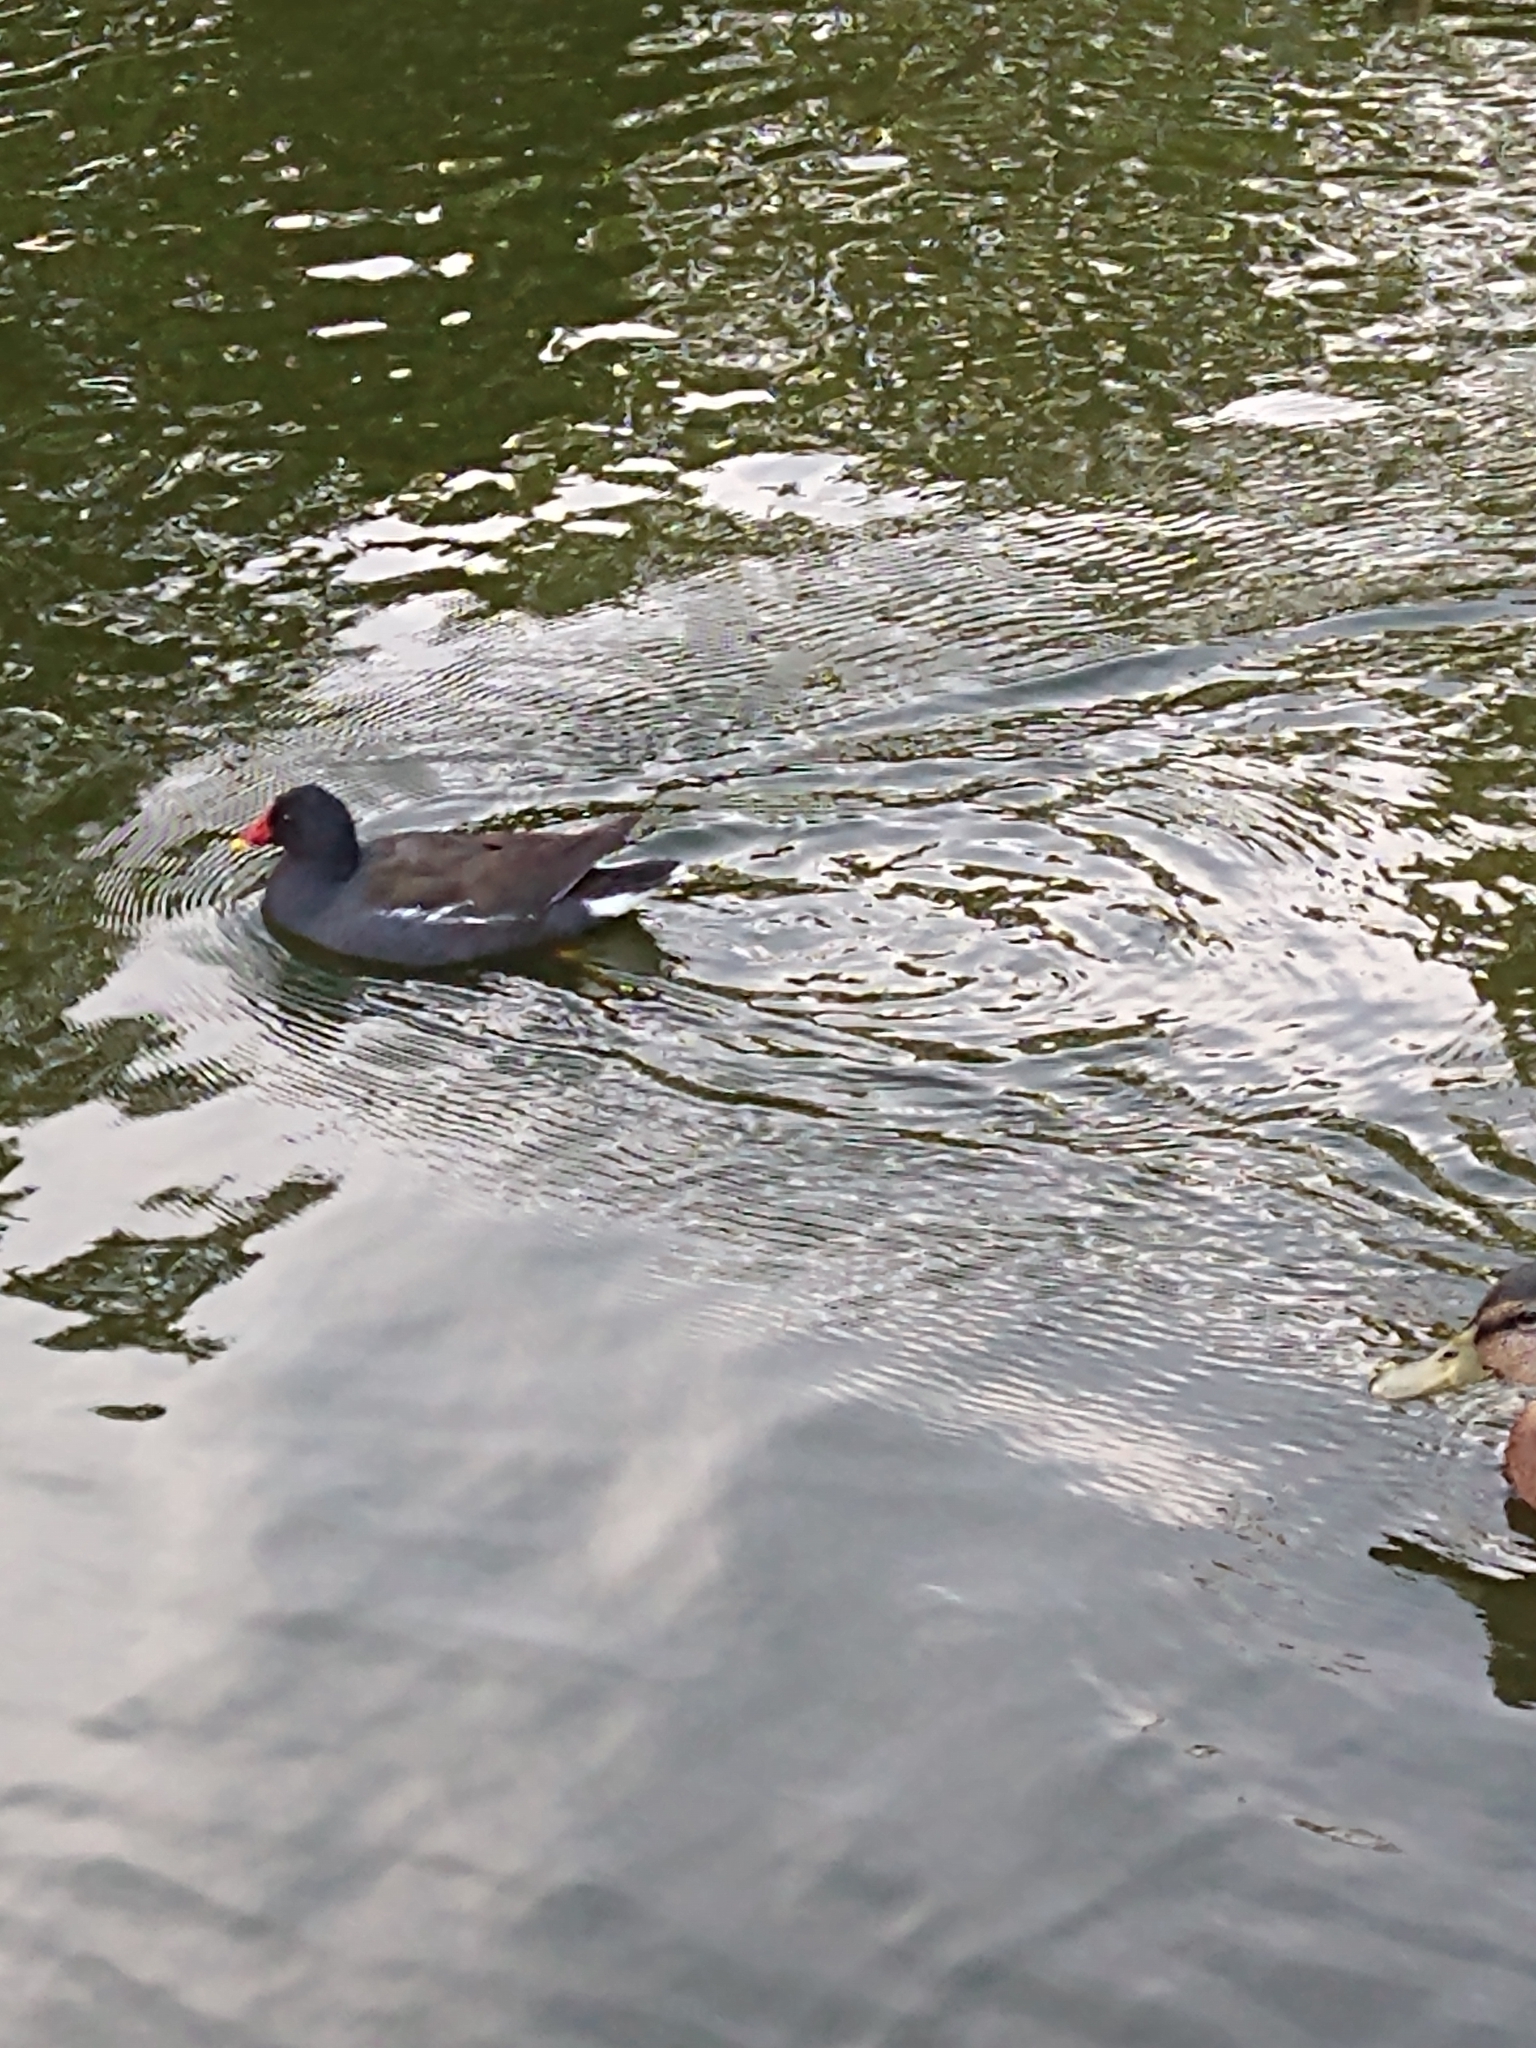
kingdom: Animalia
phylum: Chordata
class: Aves
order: Gruiformes
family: Rallidae
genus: Gallinula
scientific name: Gallinula chloropus
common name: Common moorhen
